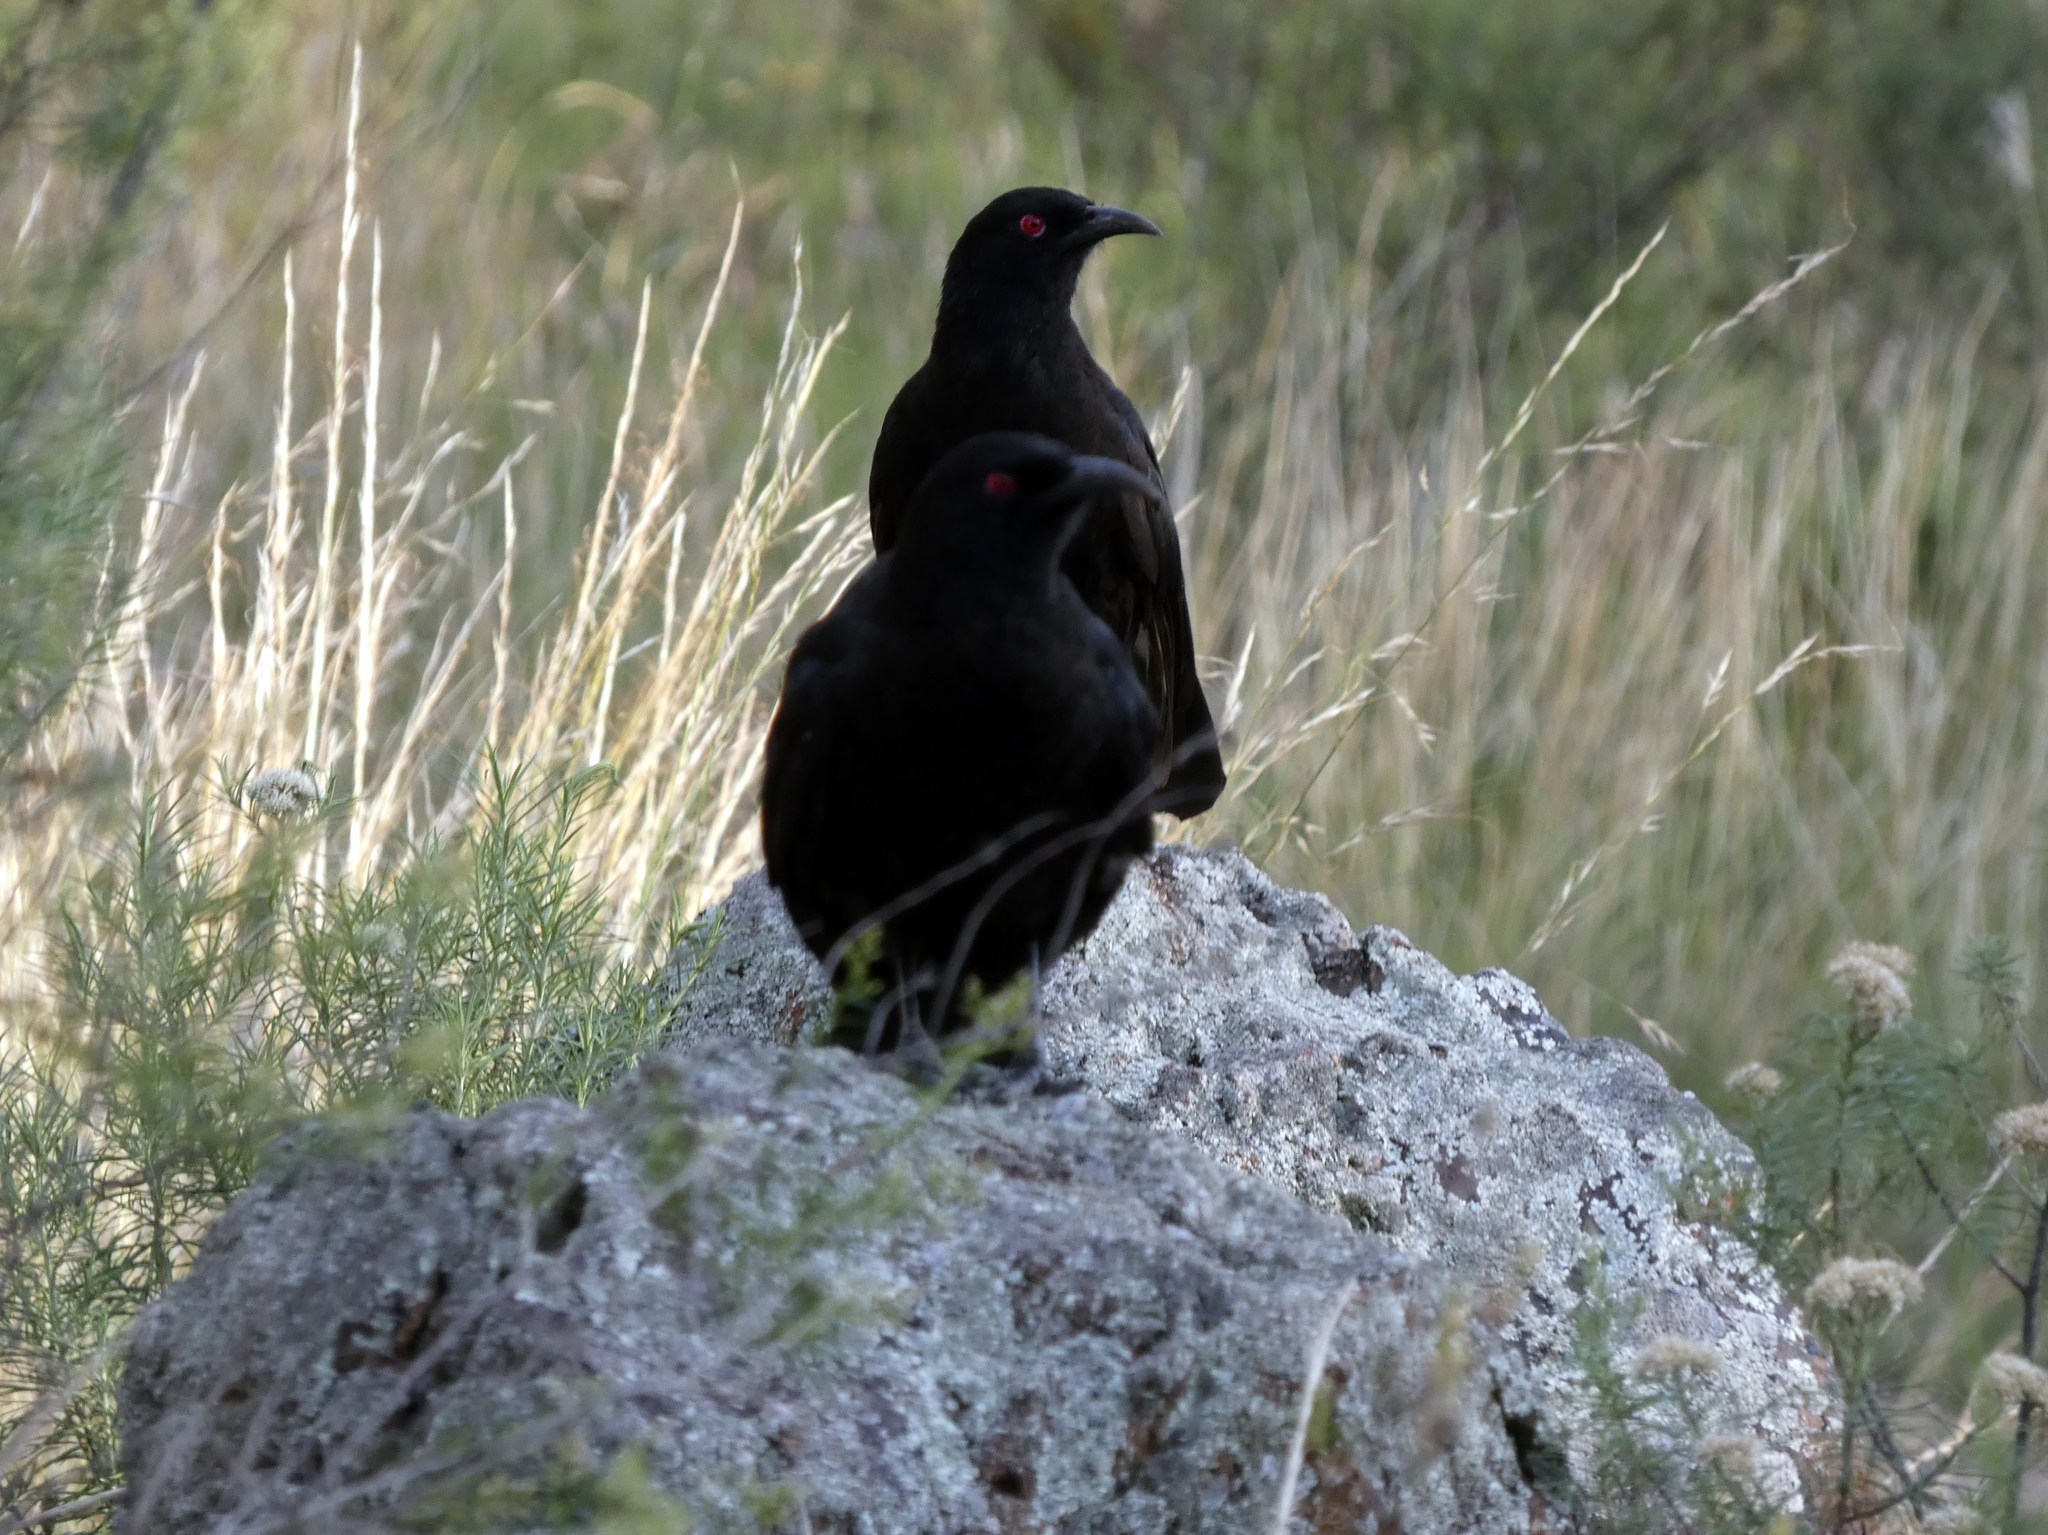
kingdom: Animalia
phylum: Chordata
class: Aves
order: Passeriformes
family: Corcoracidae
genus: Corcorax
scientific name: Corcorax melanoramphos
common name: White-winged chough
